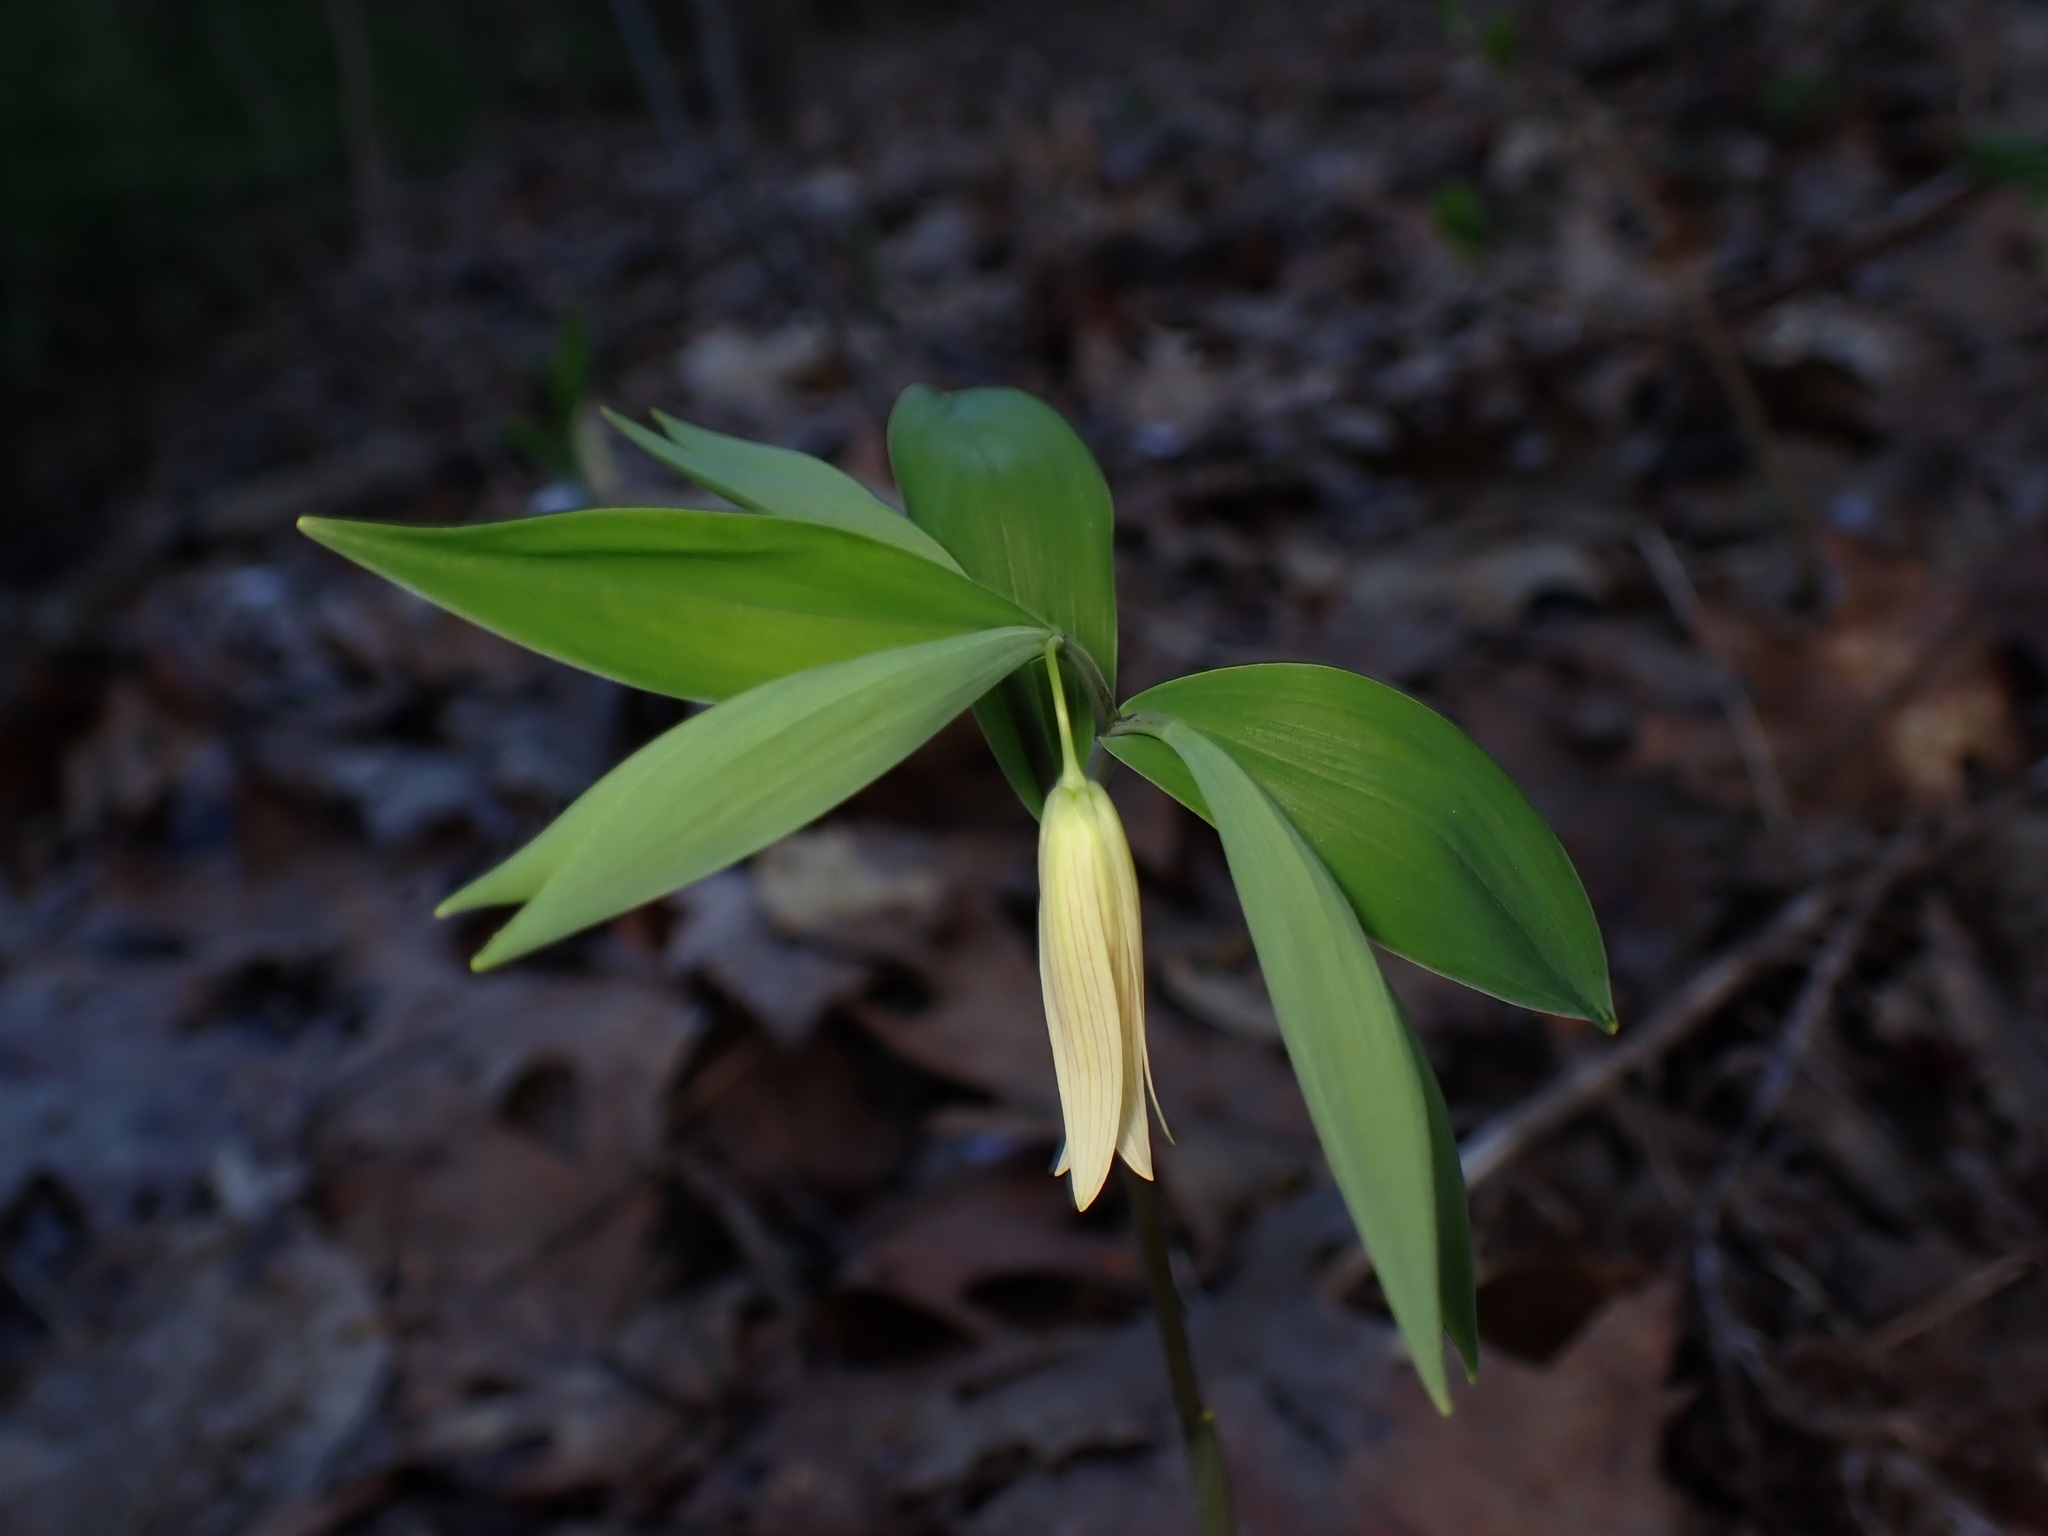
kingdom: Plantae
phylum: Tracheophyta
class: Liliopsida
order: Liliales
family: Colchicaceae
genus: Uvularia
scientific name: Uvularia sessilifolia
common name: Straw-lily
